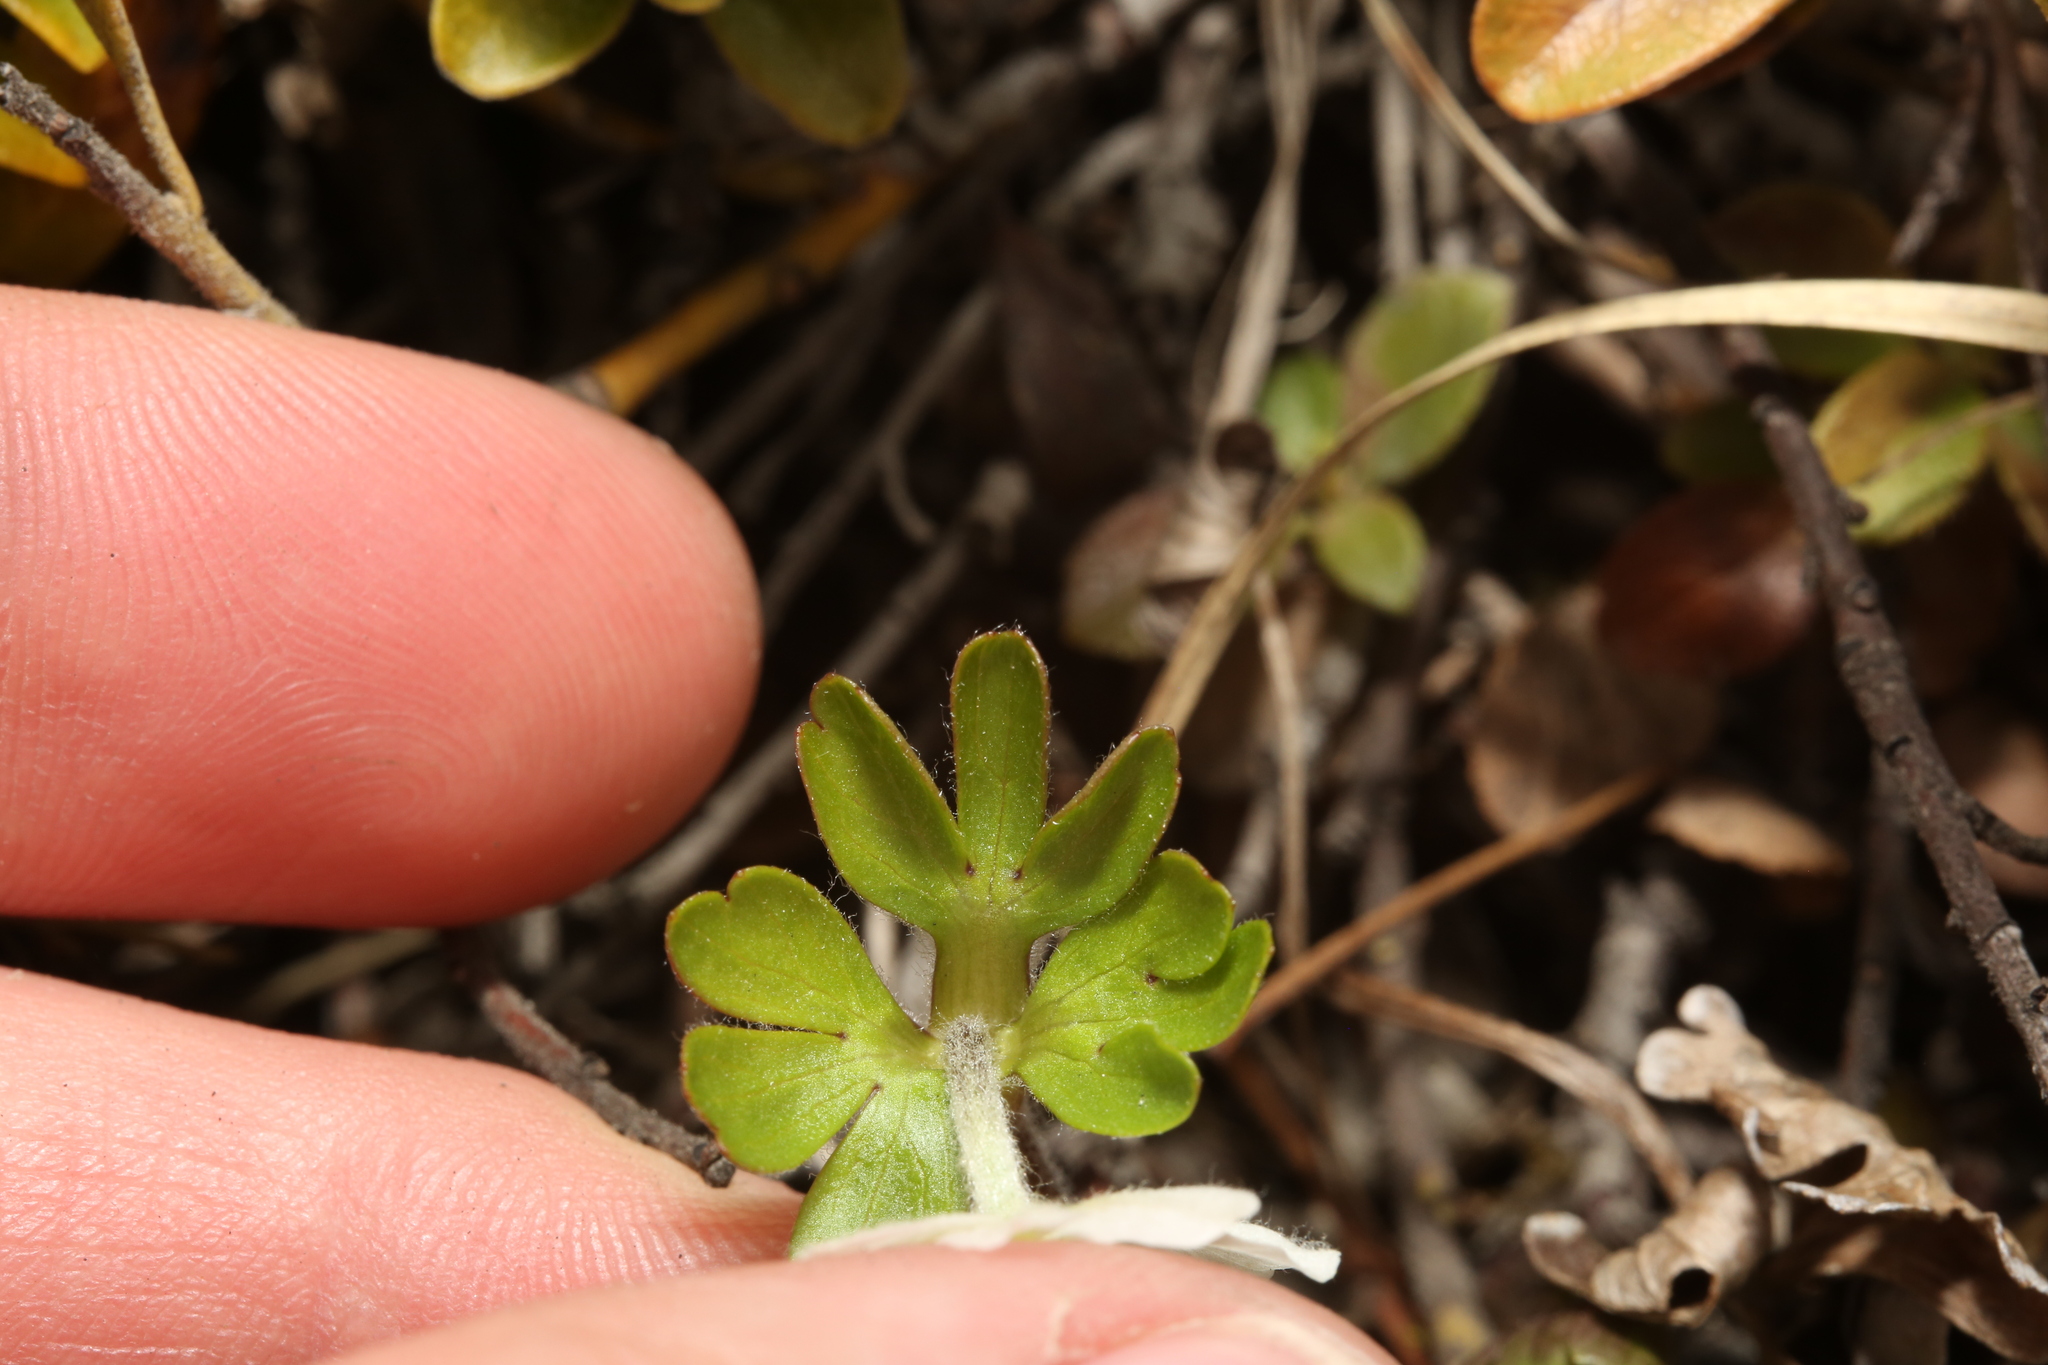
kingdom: Plantae
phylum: Tracheophyta
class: Magnoliopsida
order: Ranunculales
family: Ranunculaceae
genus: Anemone
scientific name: Anemone parviflora
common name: Northern anemone
